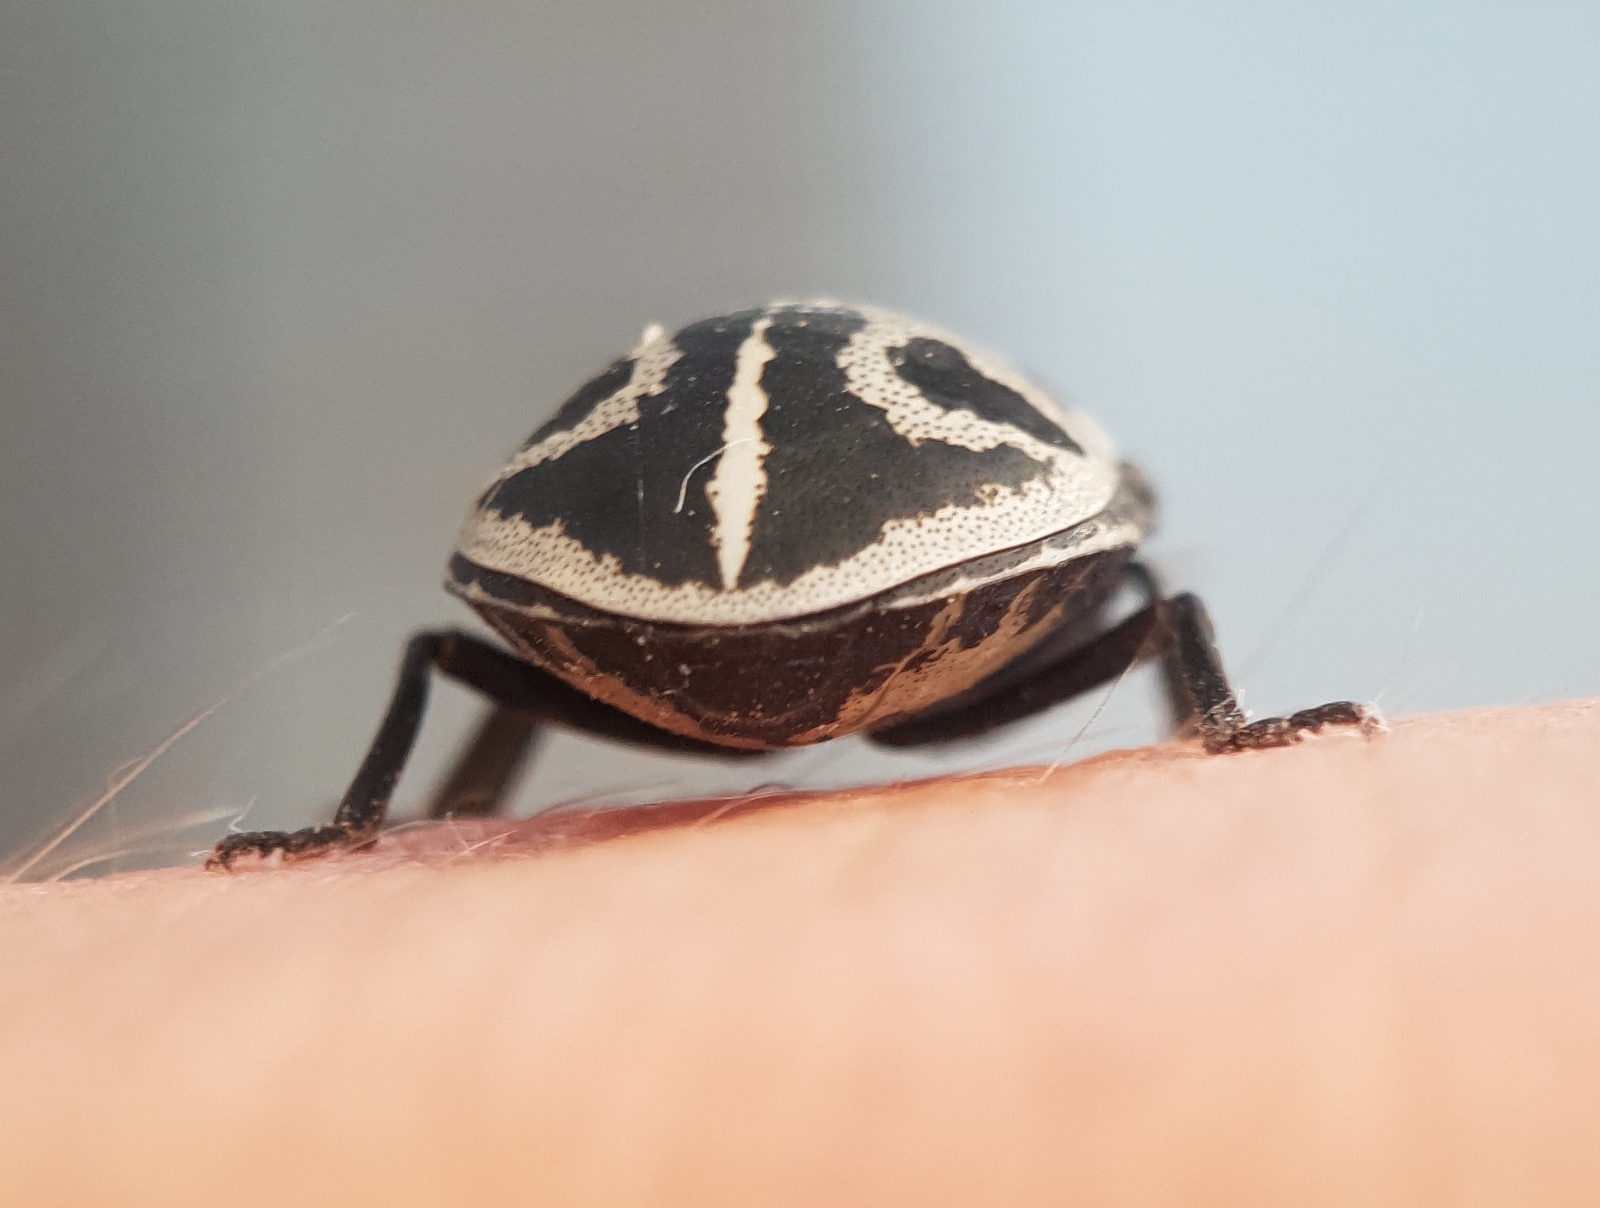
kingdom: Animalia
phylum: Arthropoda
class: Insecta
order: Hemiptera
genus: Deroplax
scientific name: Deroplax silphoides
